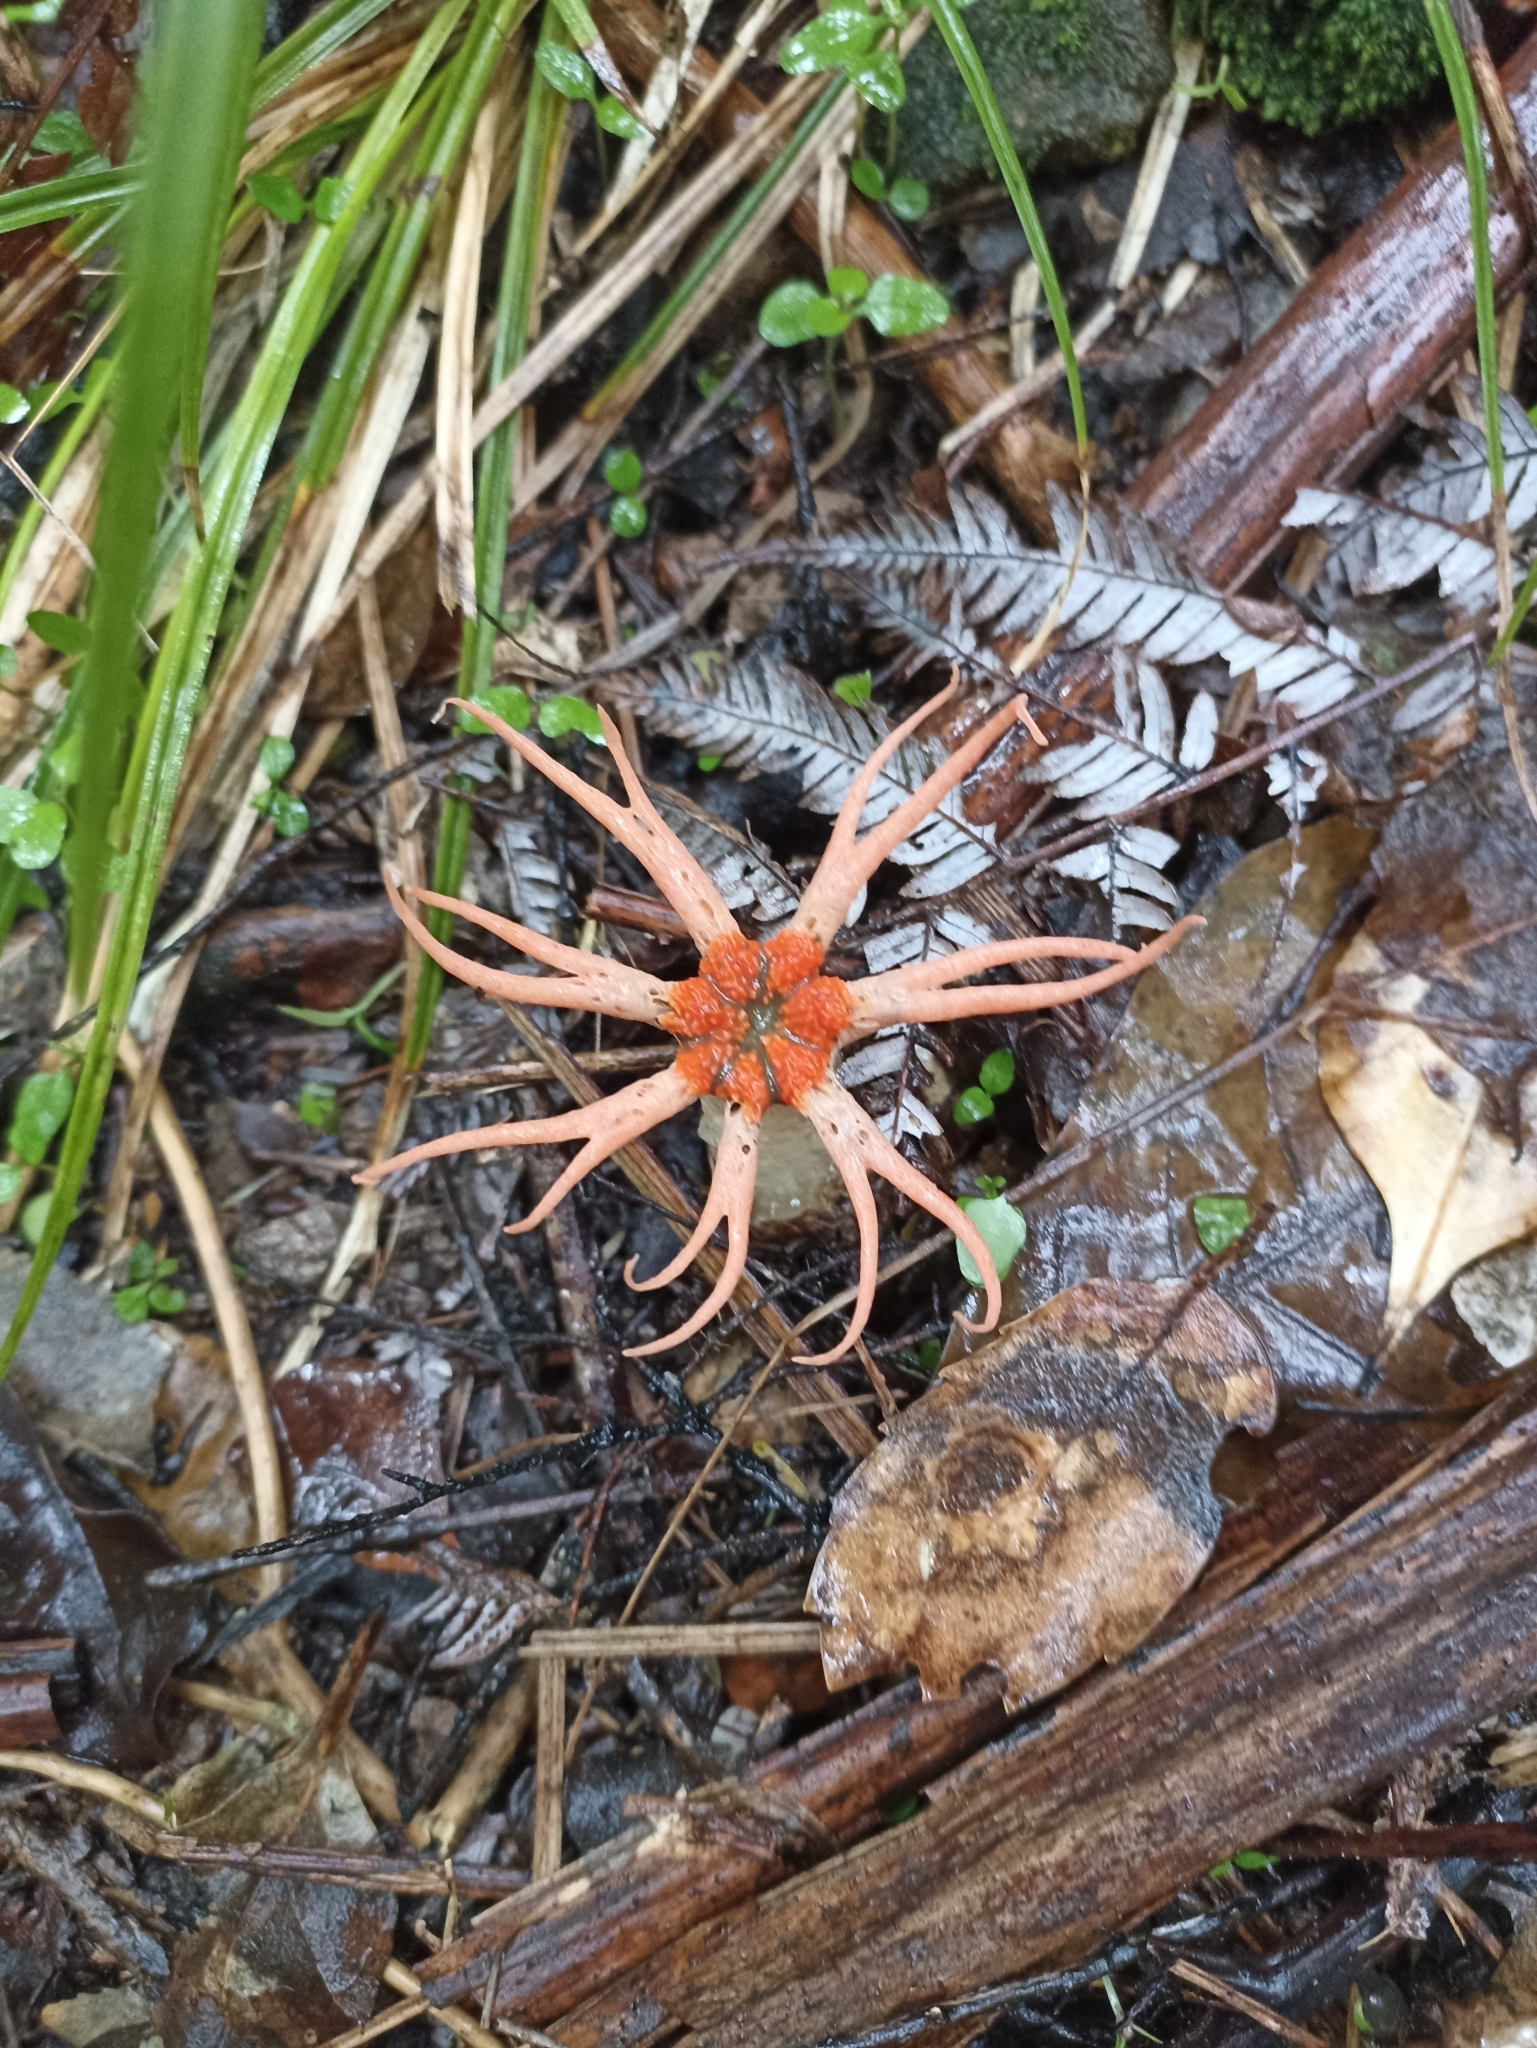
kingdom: Fungi
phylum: Basidiomycota
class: Agaricomycetes
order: Phallales
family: Phallaceae
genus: Aseroe
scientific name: Aseroe rubra
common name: Starfish fungus
